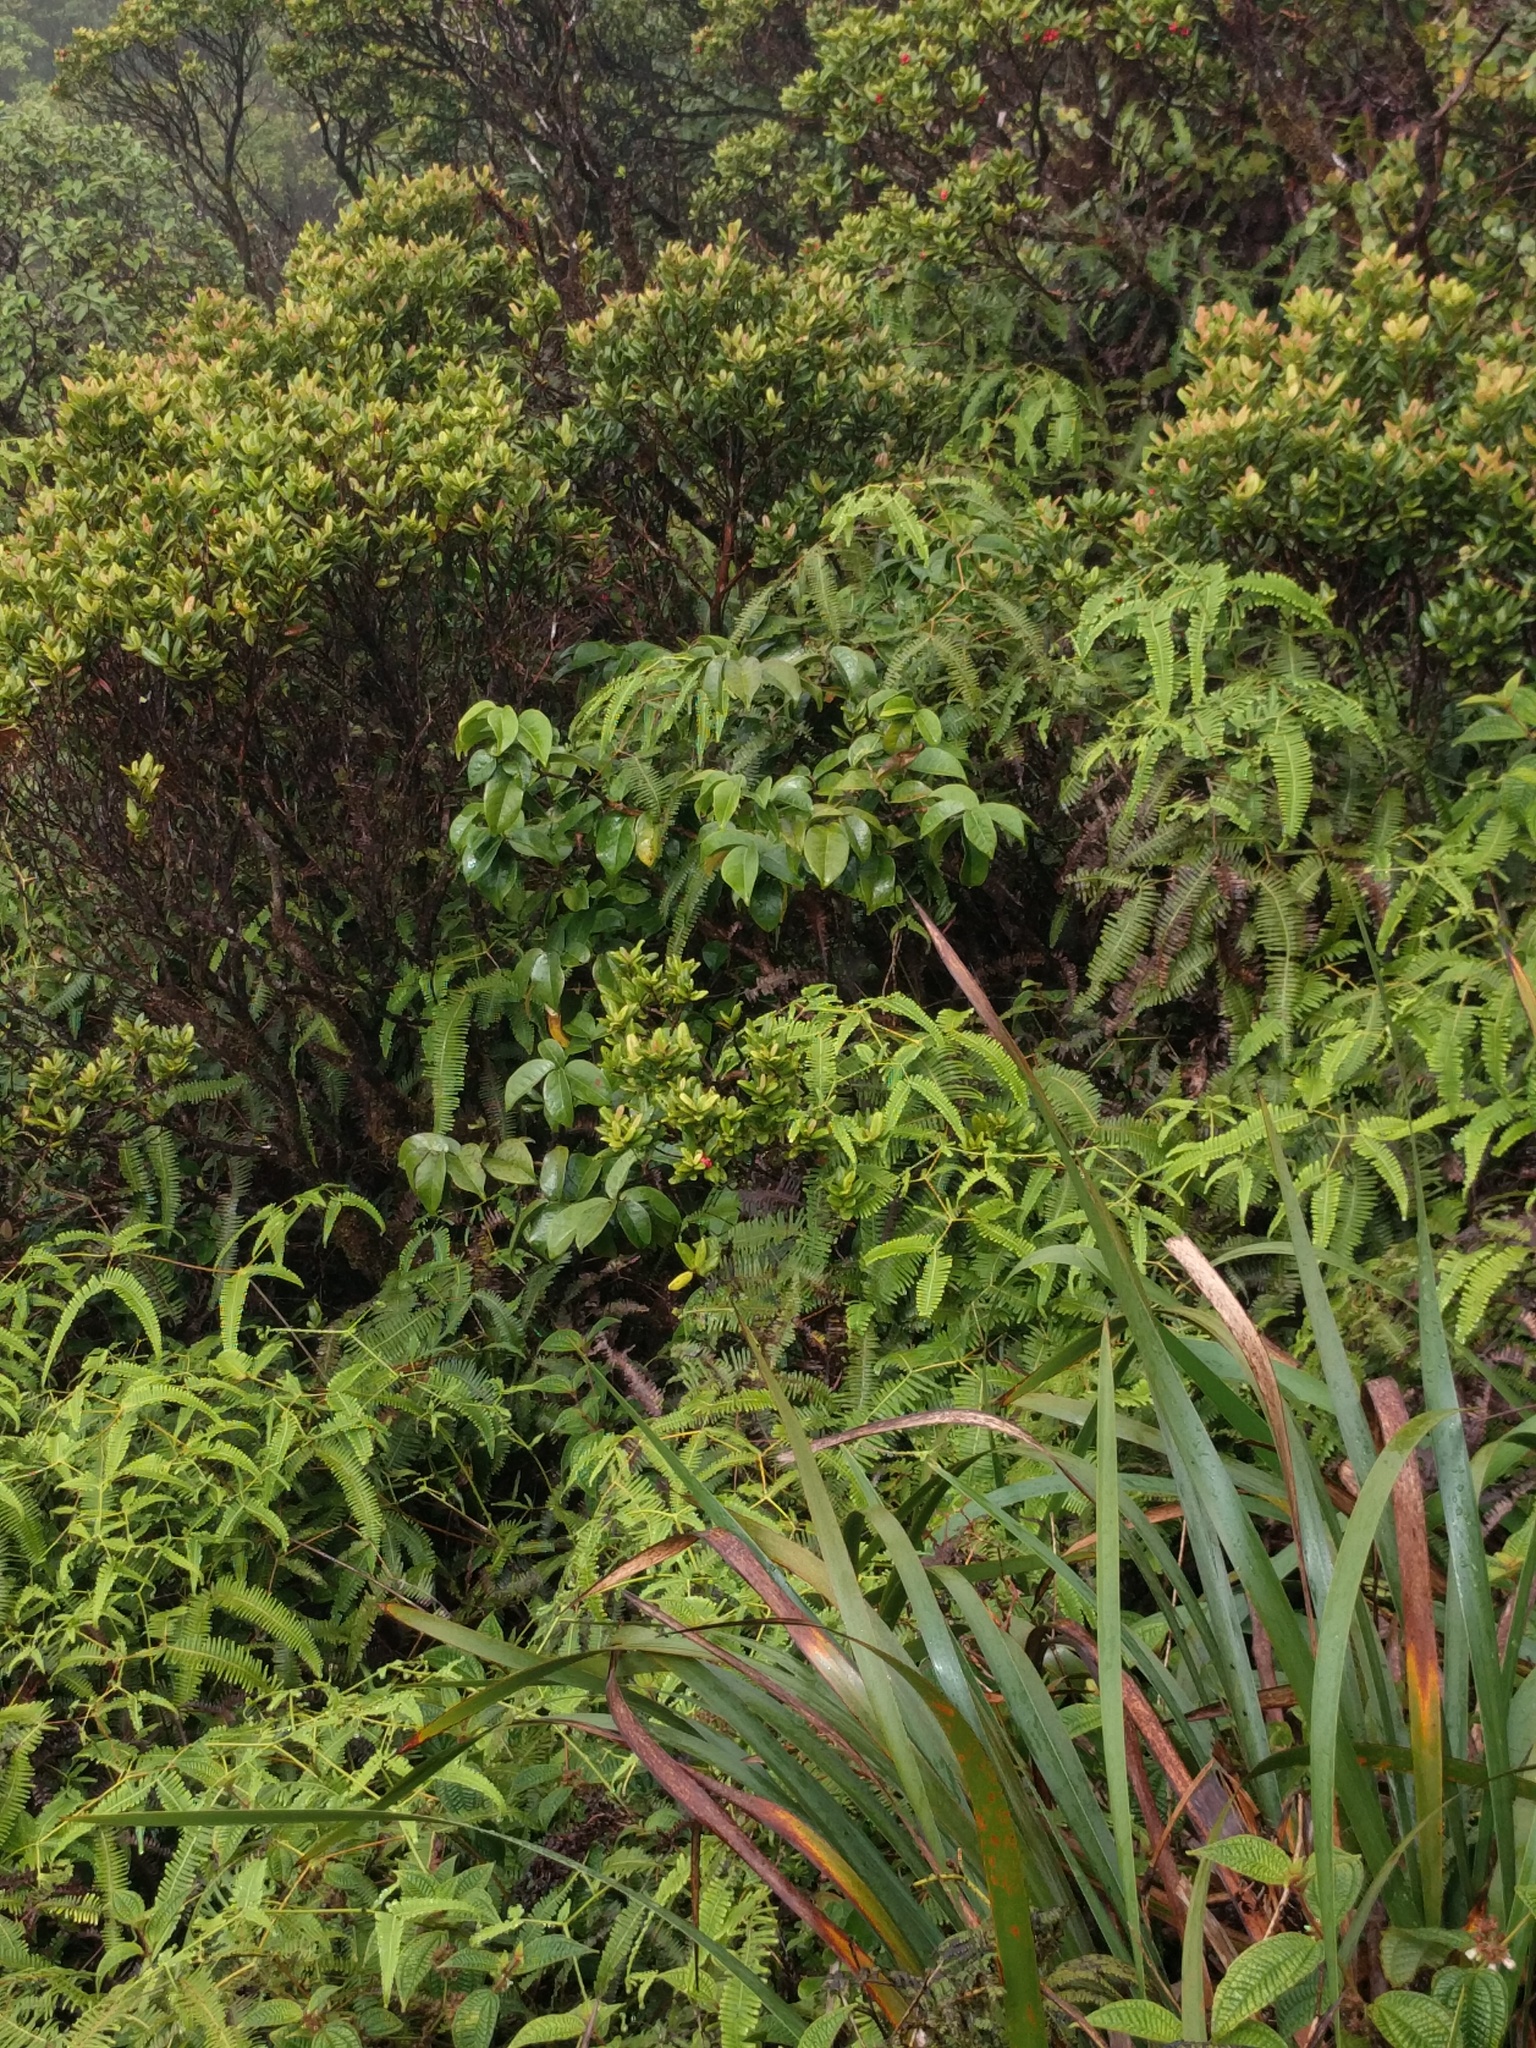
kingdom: Plantae
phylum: Tracheophyta
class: Magnoliopsida
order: Malpighiales
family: Phyllanthaceae
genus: Antidesma
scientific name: Antidesma platyphyllum
